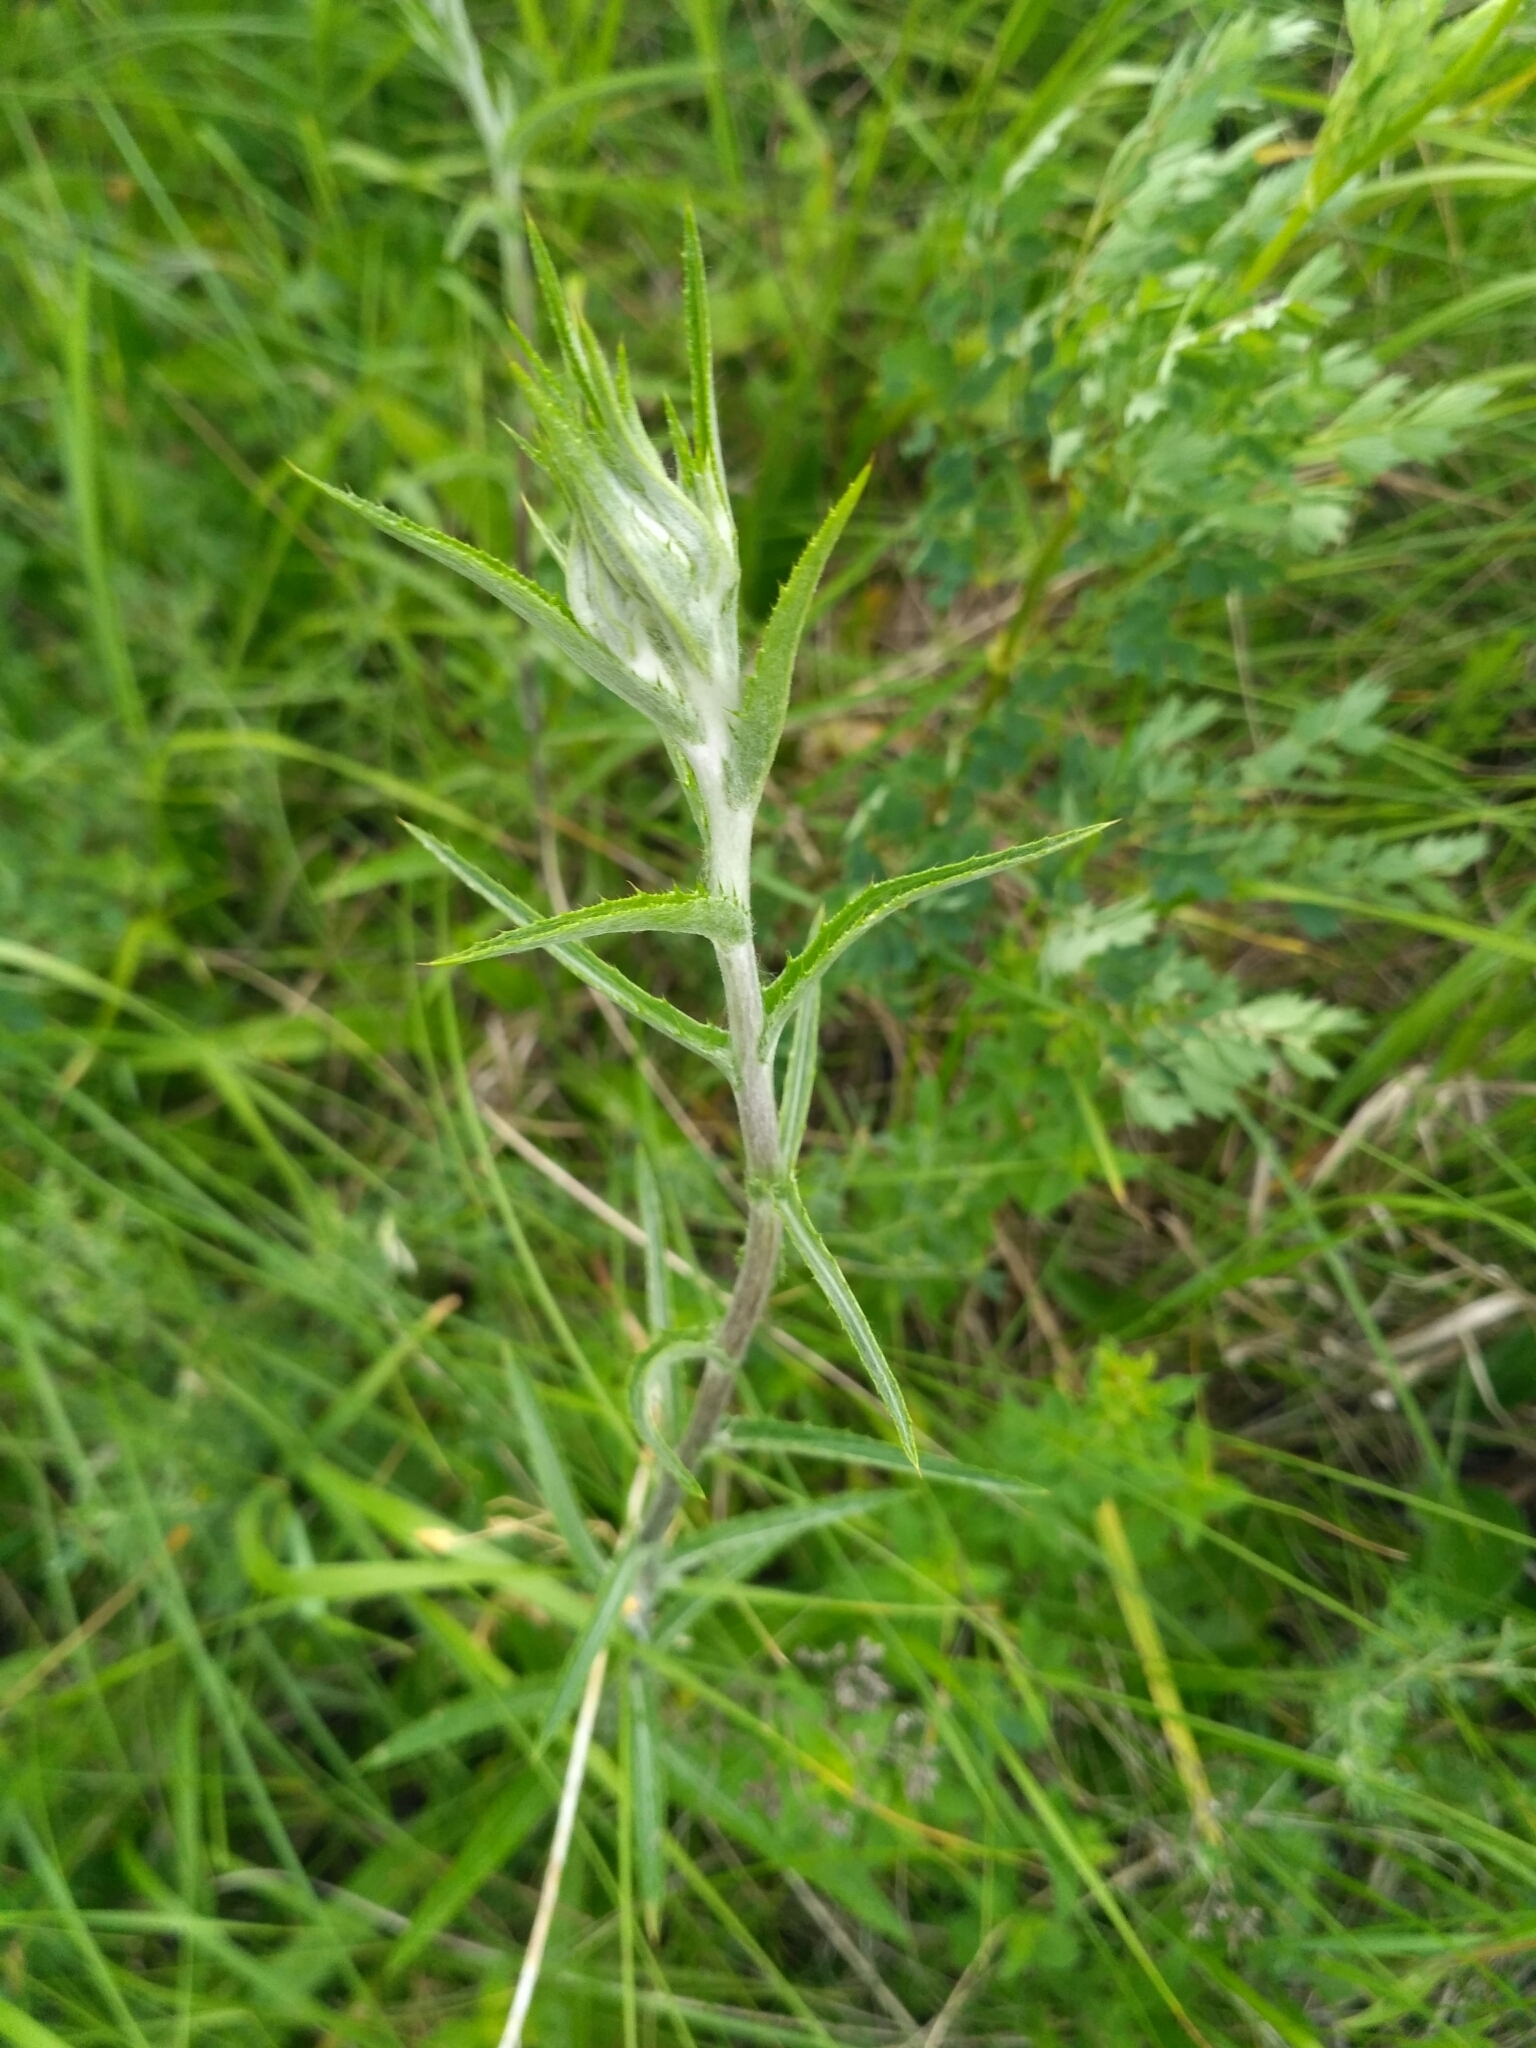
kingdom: Plantae
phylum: Tracheophyta
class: Magnoliopsida
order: Asterales
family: Asteraceae
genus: Carlina
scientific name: Carlina biebersteinii
